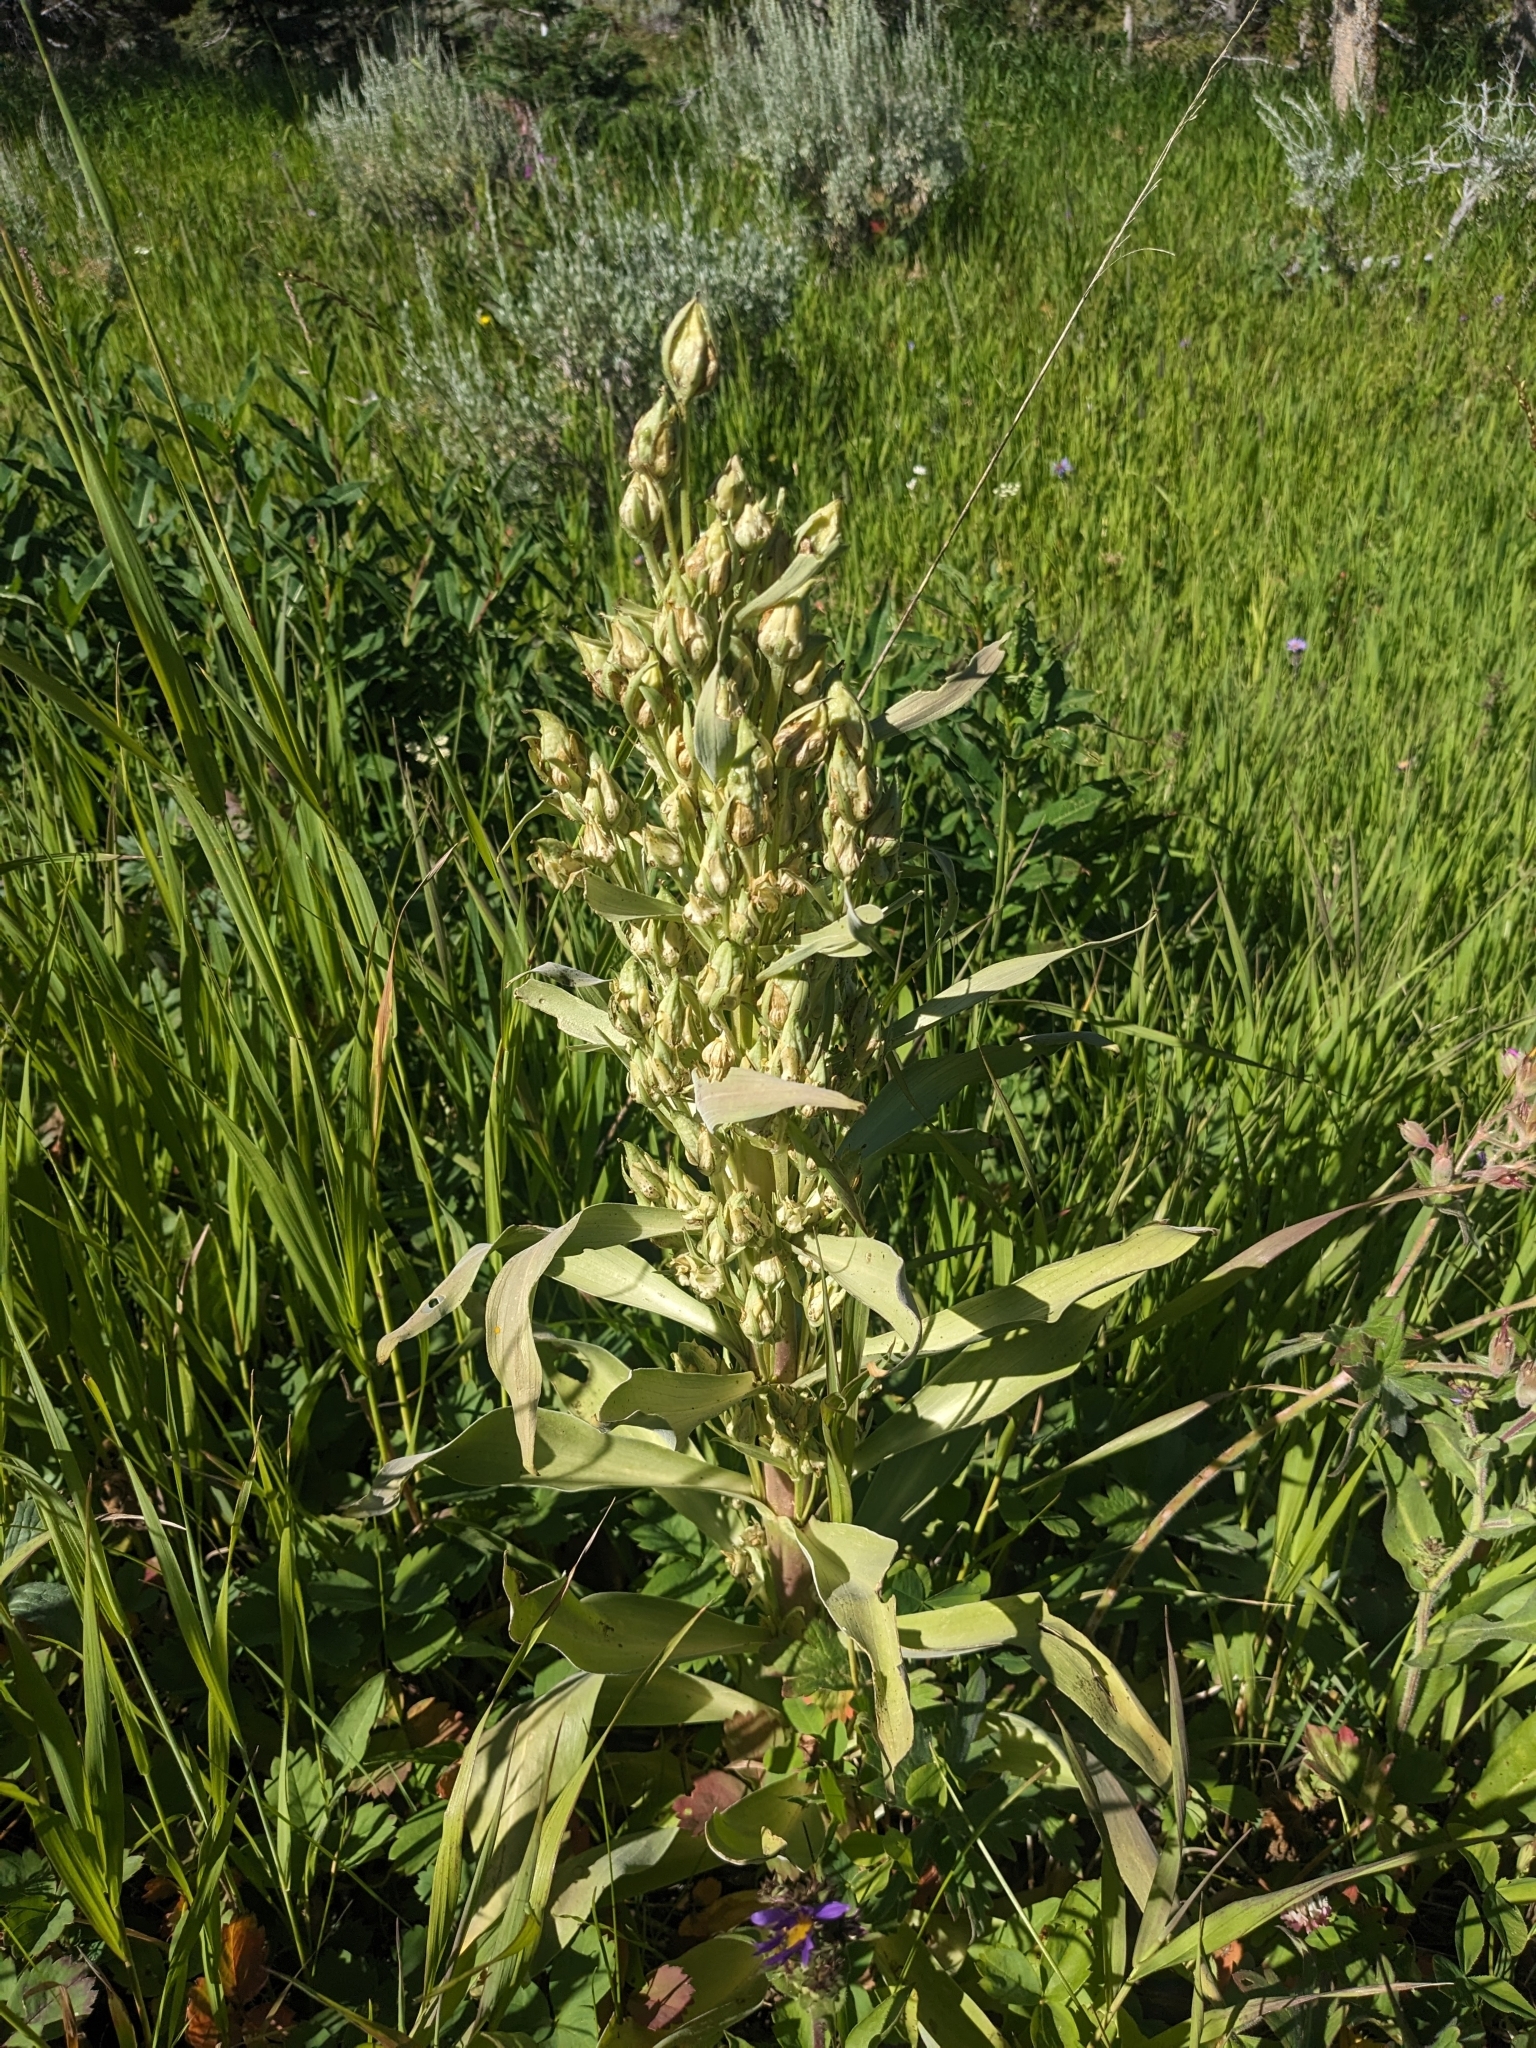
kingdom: Plantae
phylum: Tracheophyta
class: Magnoliopsida
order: Gentianales
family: Gentianaceae
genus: Frasera
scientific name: Frasera speciosa
